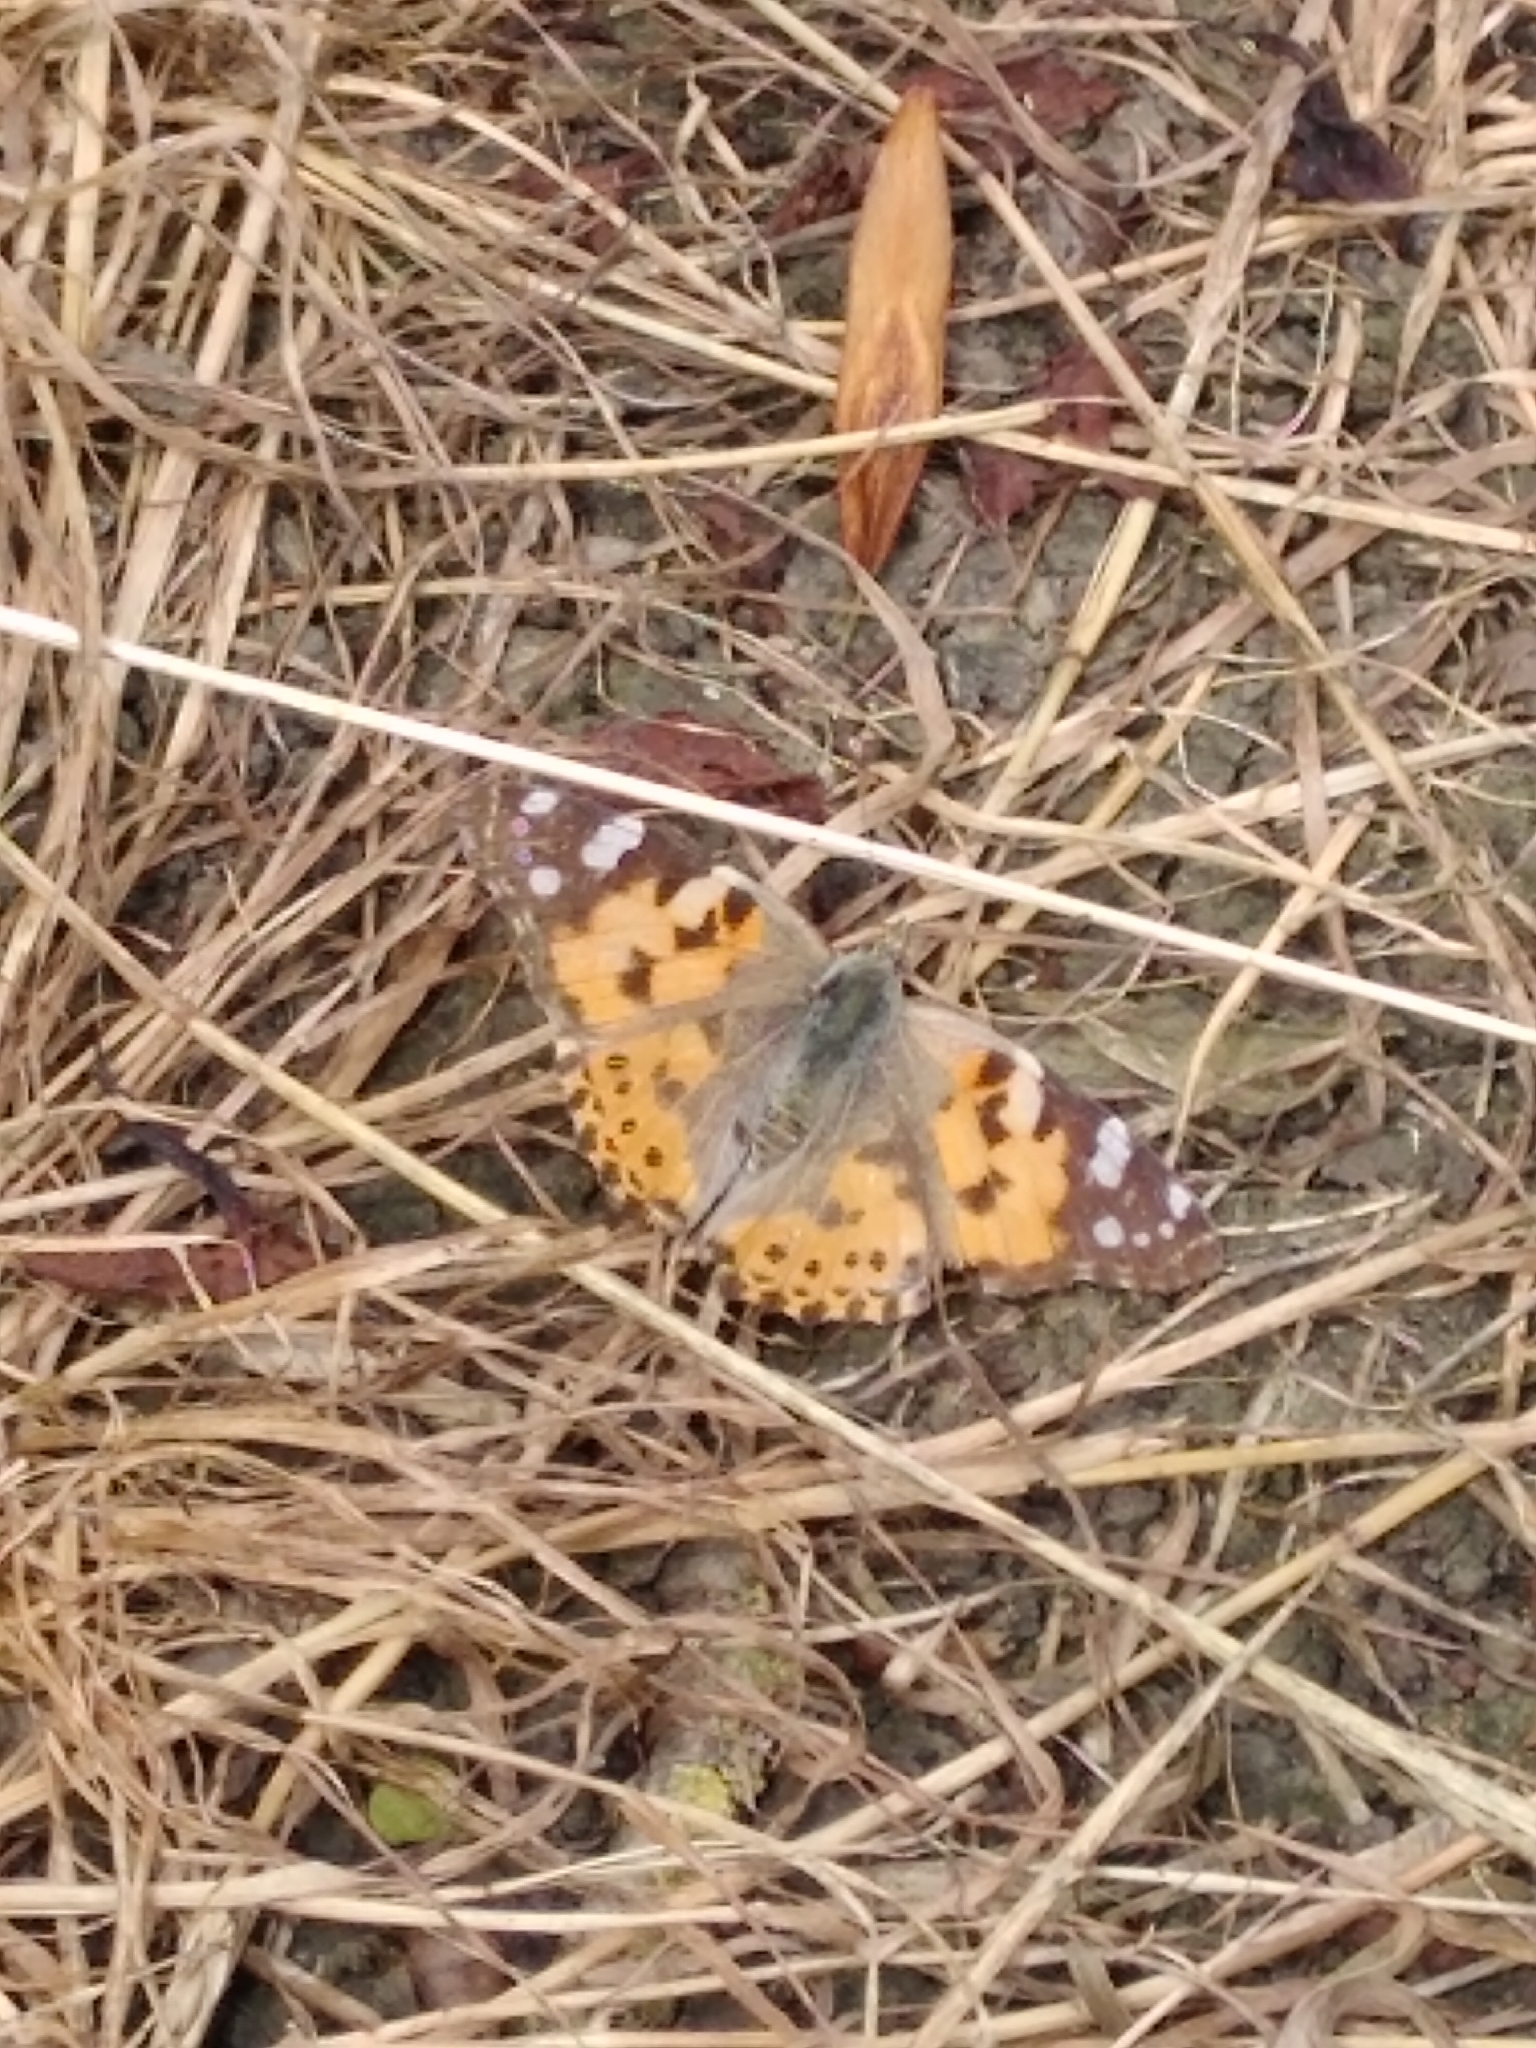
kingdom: Animalia
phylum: Arthropoda
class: Insecta
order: Lepidoptera
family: Nymphalidae
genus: Vanessa
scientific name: Vanessa cardui
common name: Painted lady
